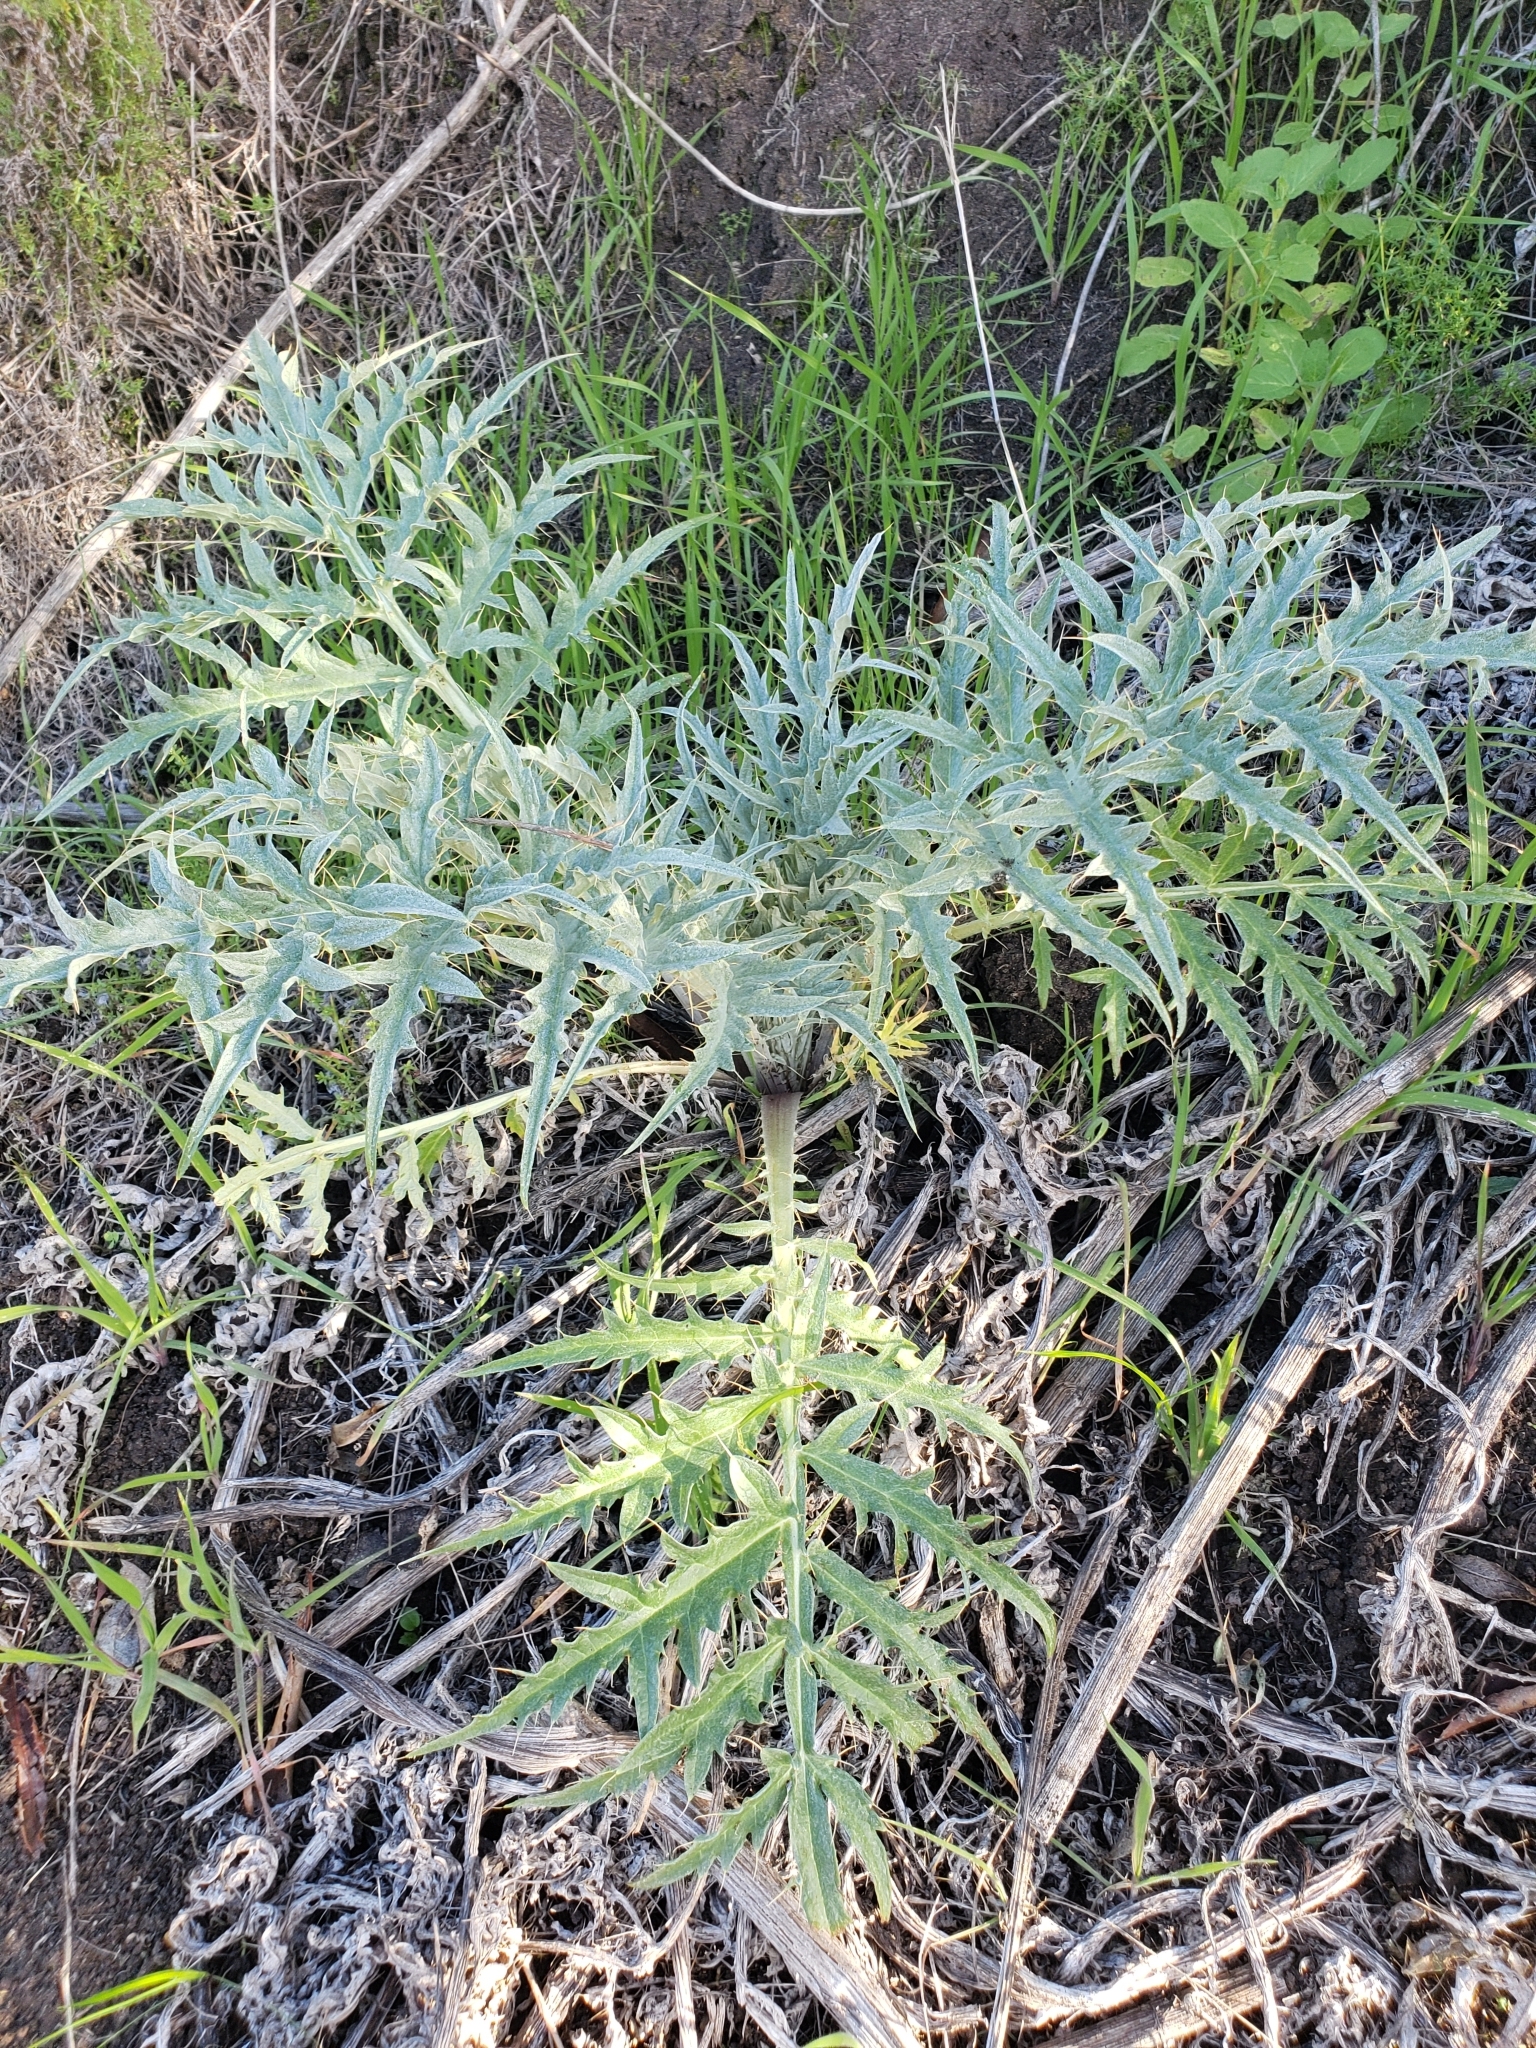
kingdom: Plantae
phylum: Tracheophyta
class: Magnoliopsida
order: Asterales
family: Asteraceae
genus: Cynara
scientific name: Cynara cardunculus
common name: Globe artichoke
